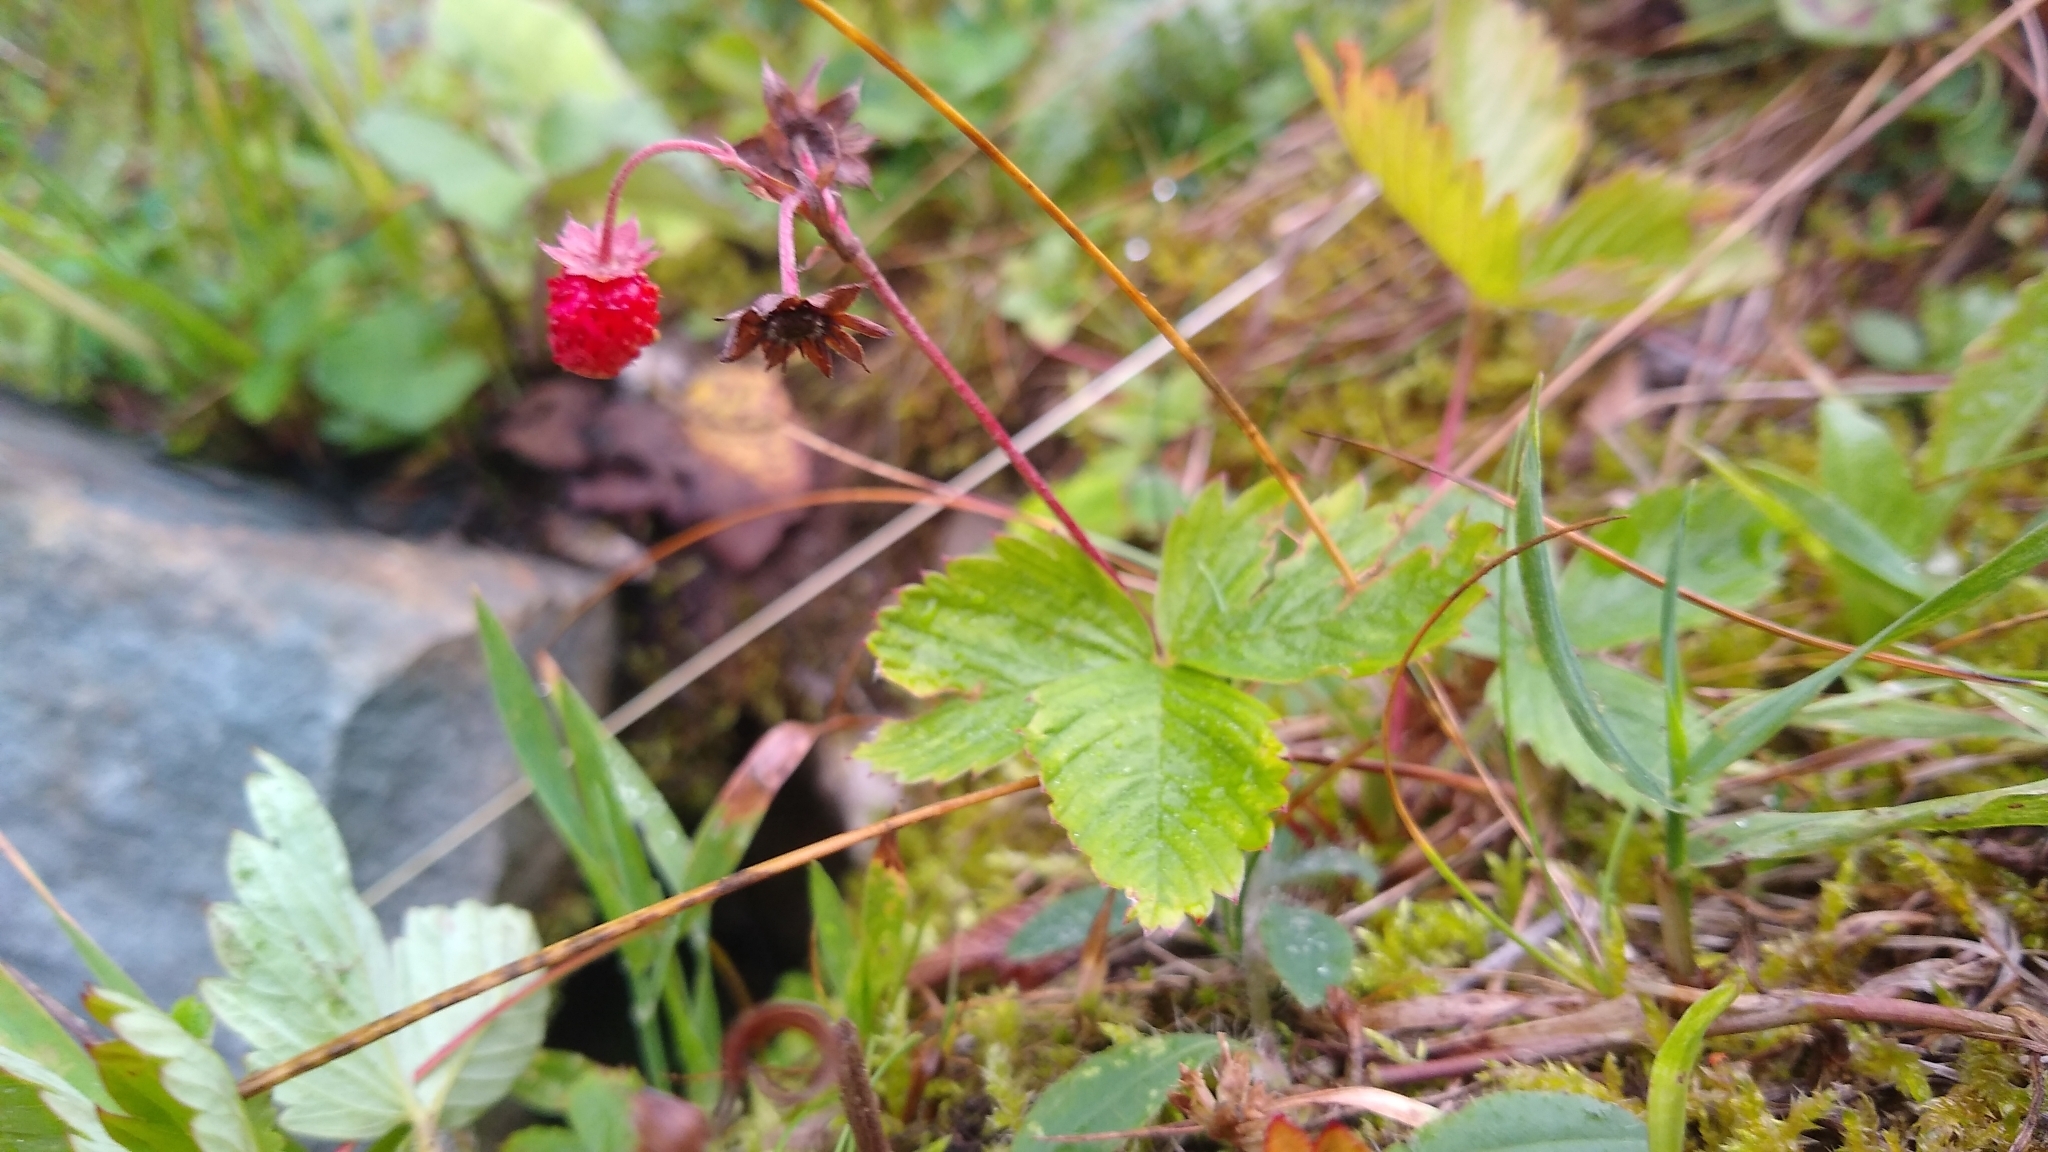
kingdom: Plantae
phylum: Tracheophyta
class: Magnoliopsida
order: Rosales
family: Rosaceae
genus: Fragaria
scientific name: Fragaria vesca
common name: Wild strawberry
